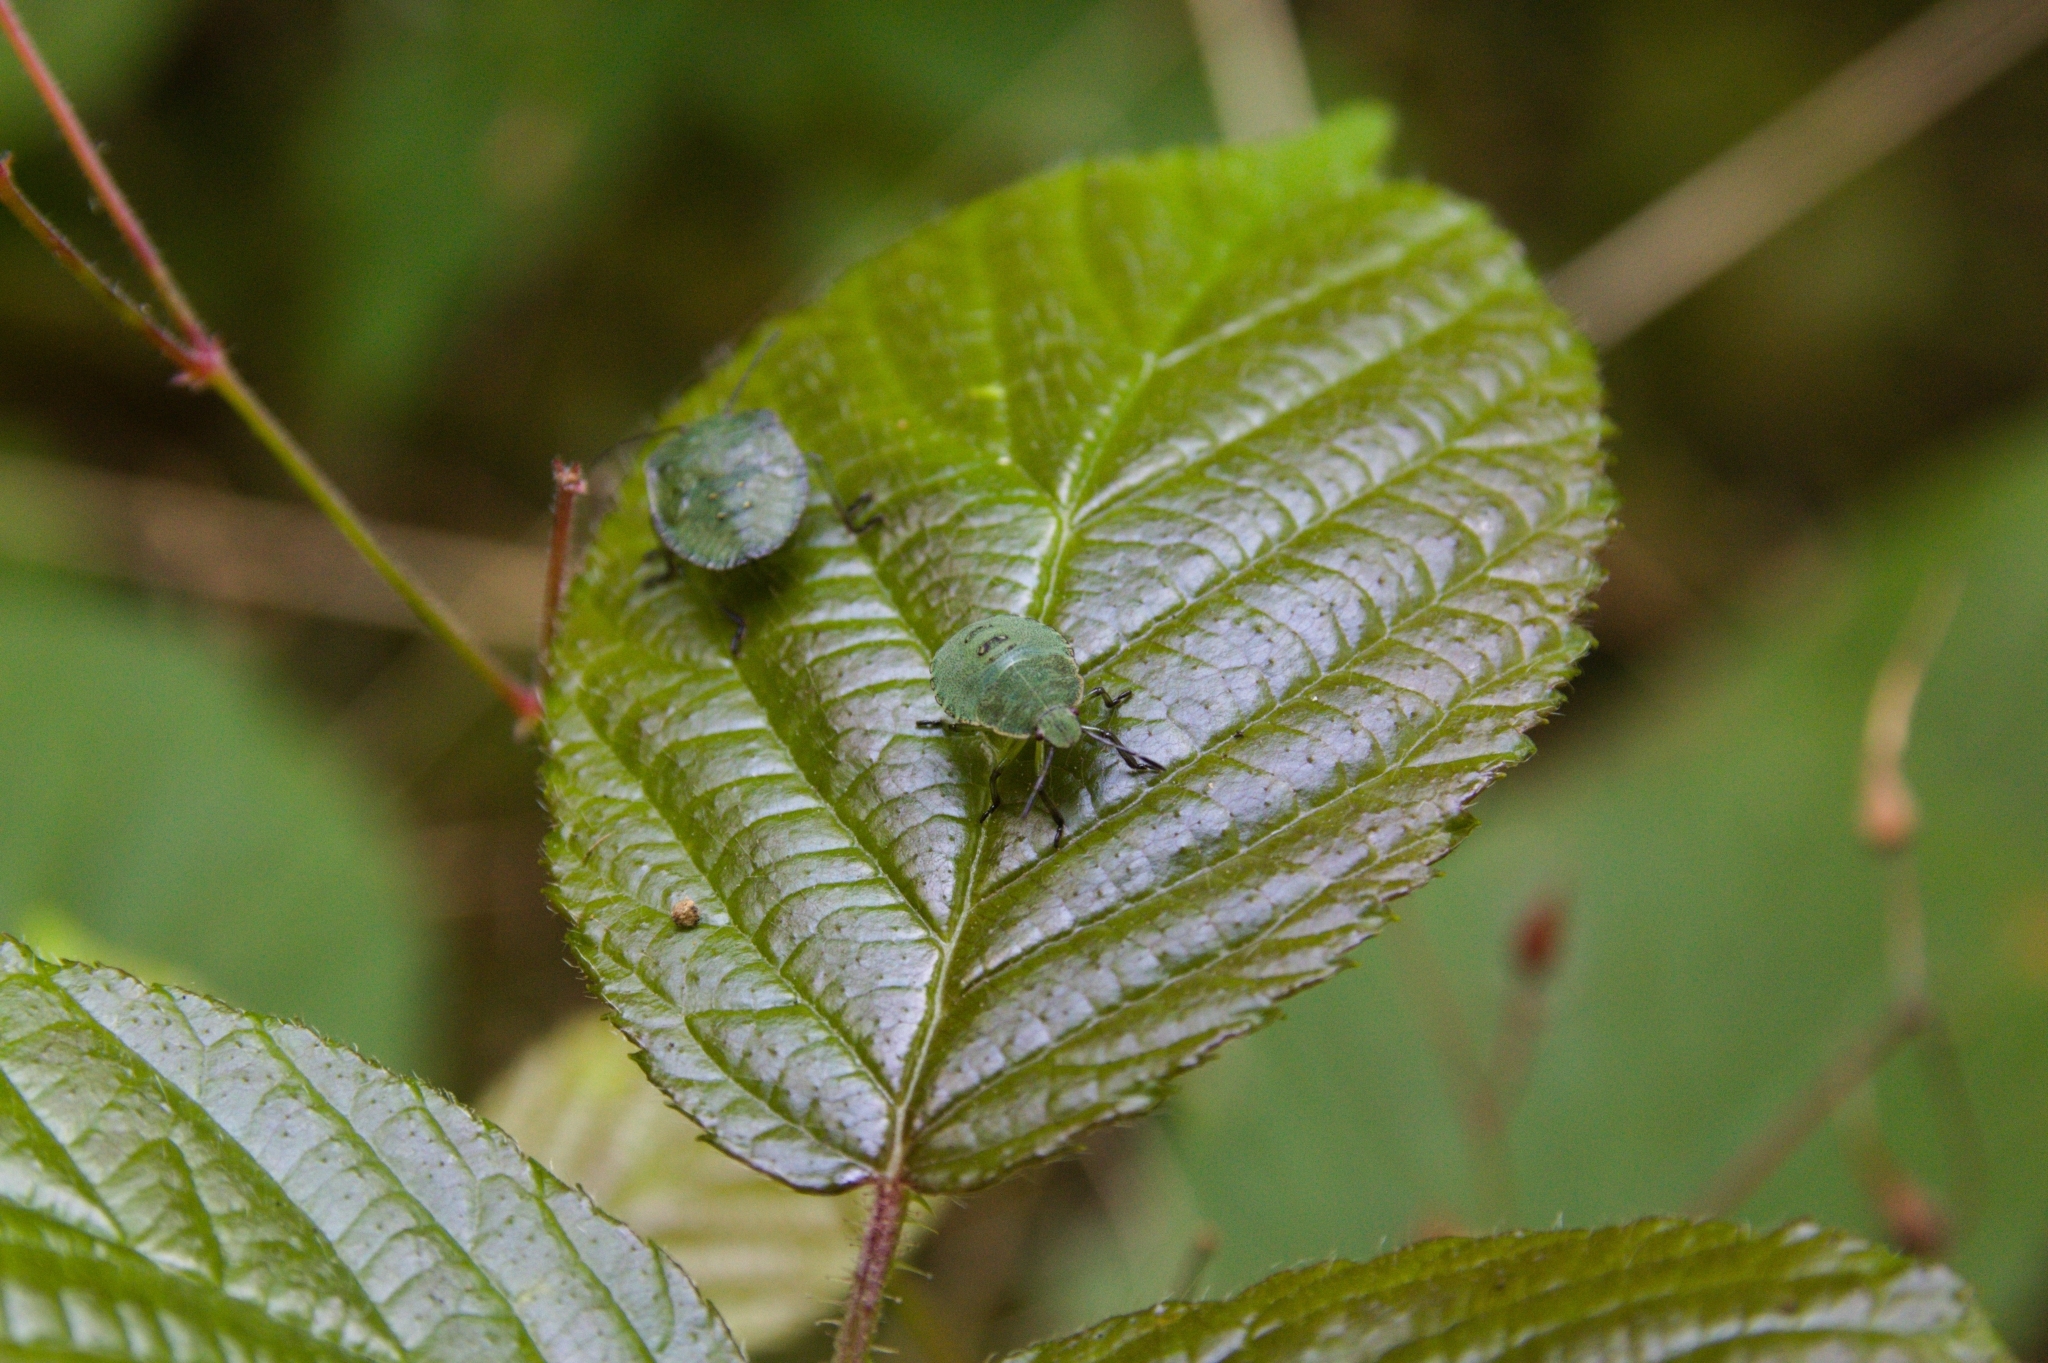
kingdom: Animalia
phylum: Arthropoda
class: Insecta
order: Hemiptera
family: Pentatomidae
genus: Palomena
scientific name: Palomena prasina
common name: Green shieldbug
